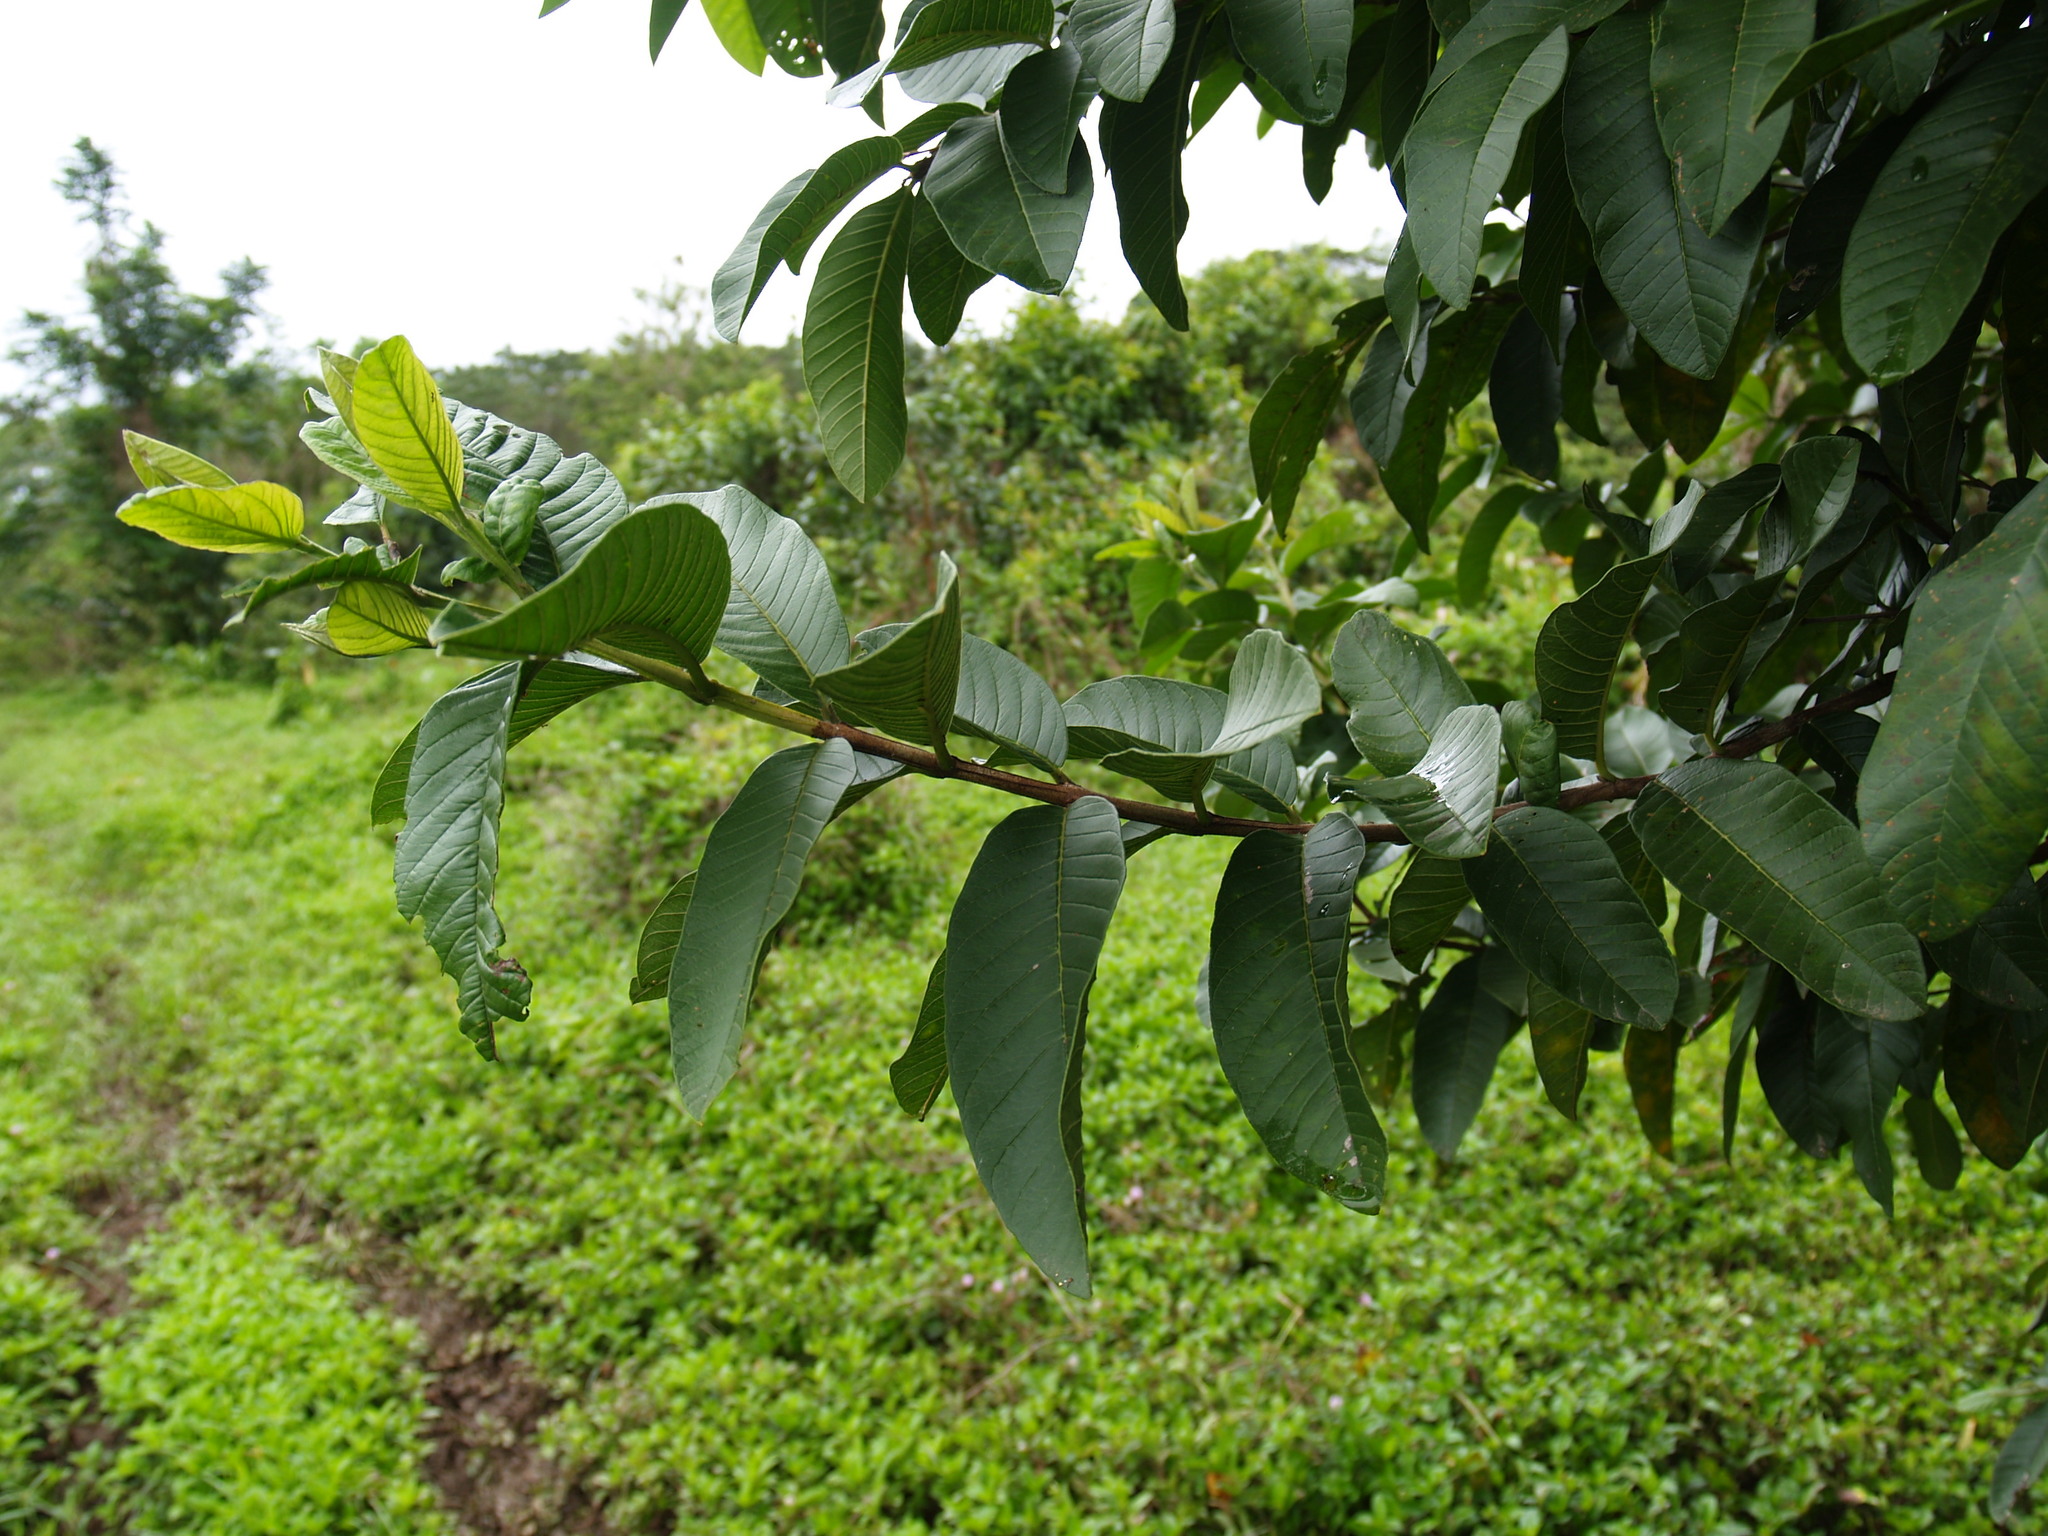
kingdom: Plantae
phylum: Tracheophyta
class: Magnoliopsida
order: Myrtales
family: Myrtaceae
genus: Psidium
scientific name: Psidium guajava
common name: Guava
